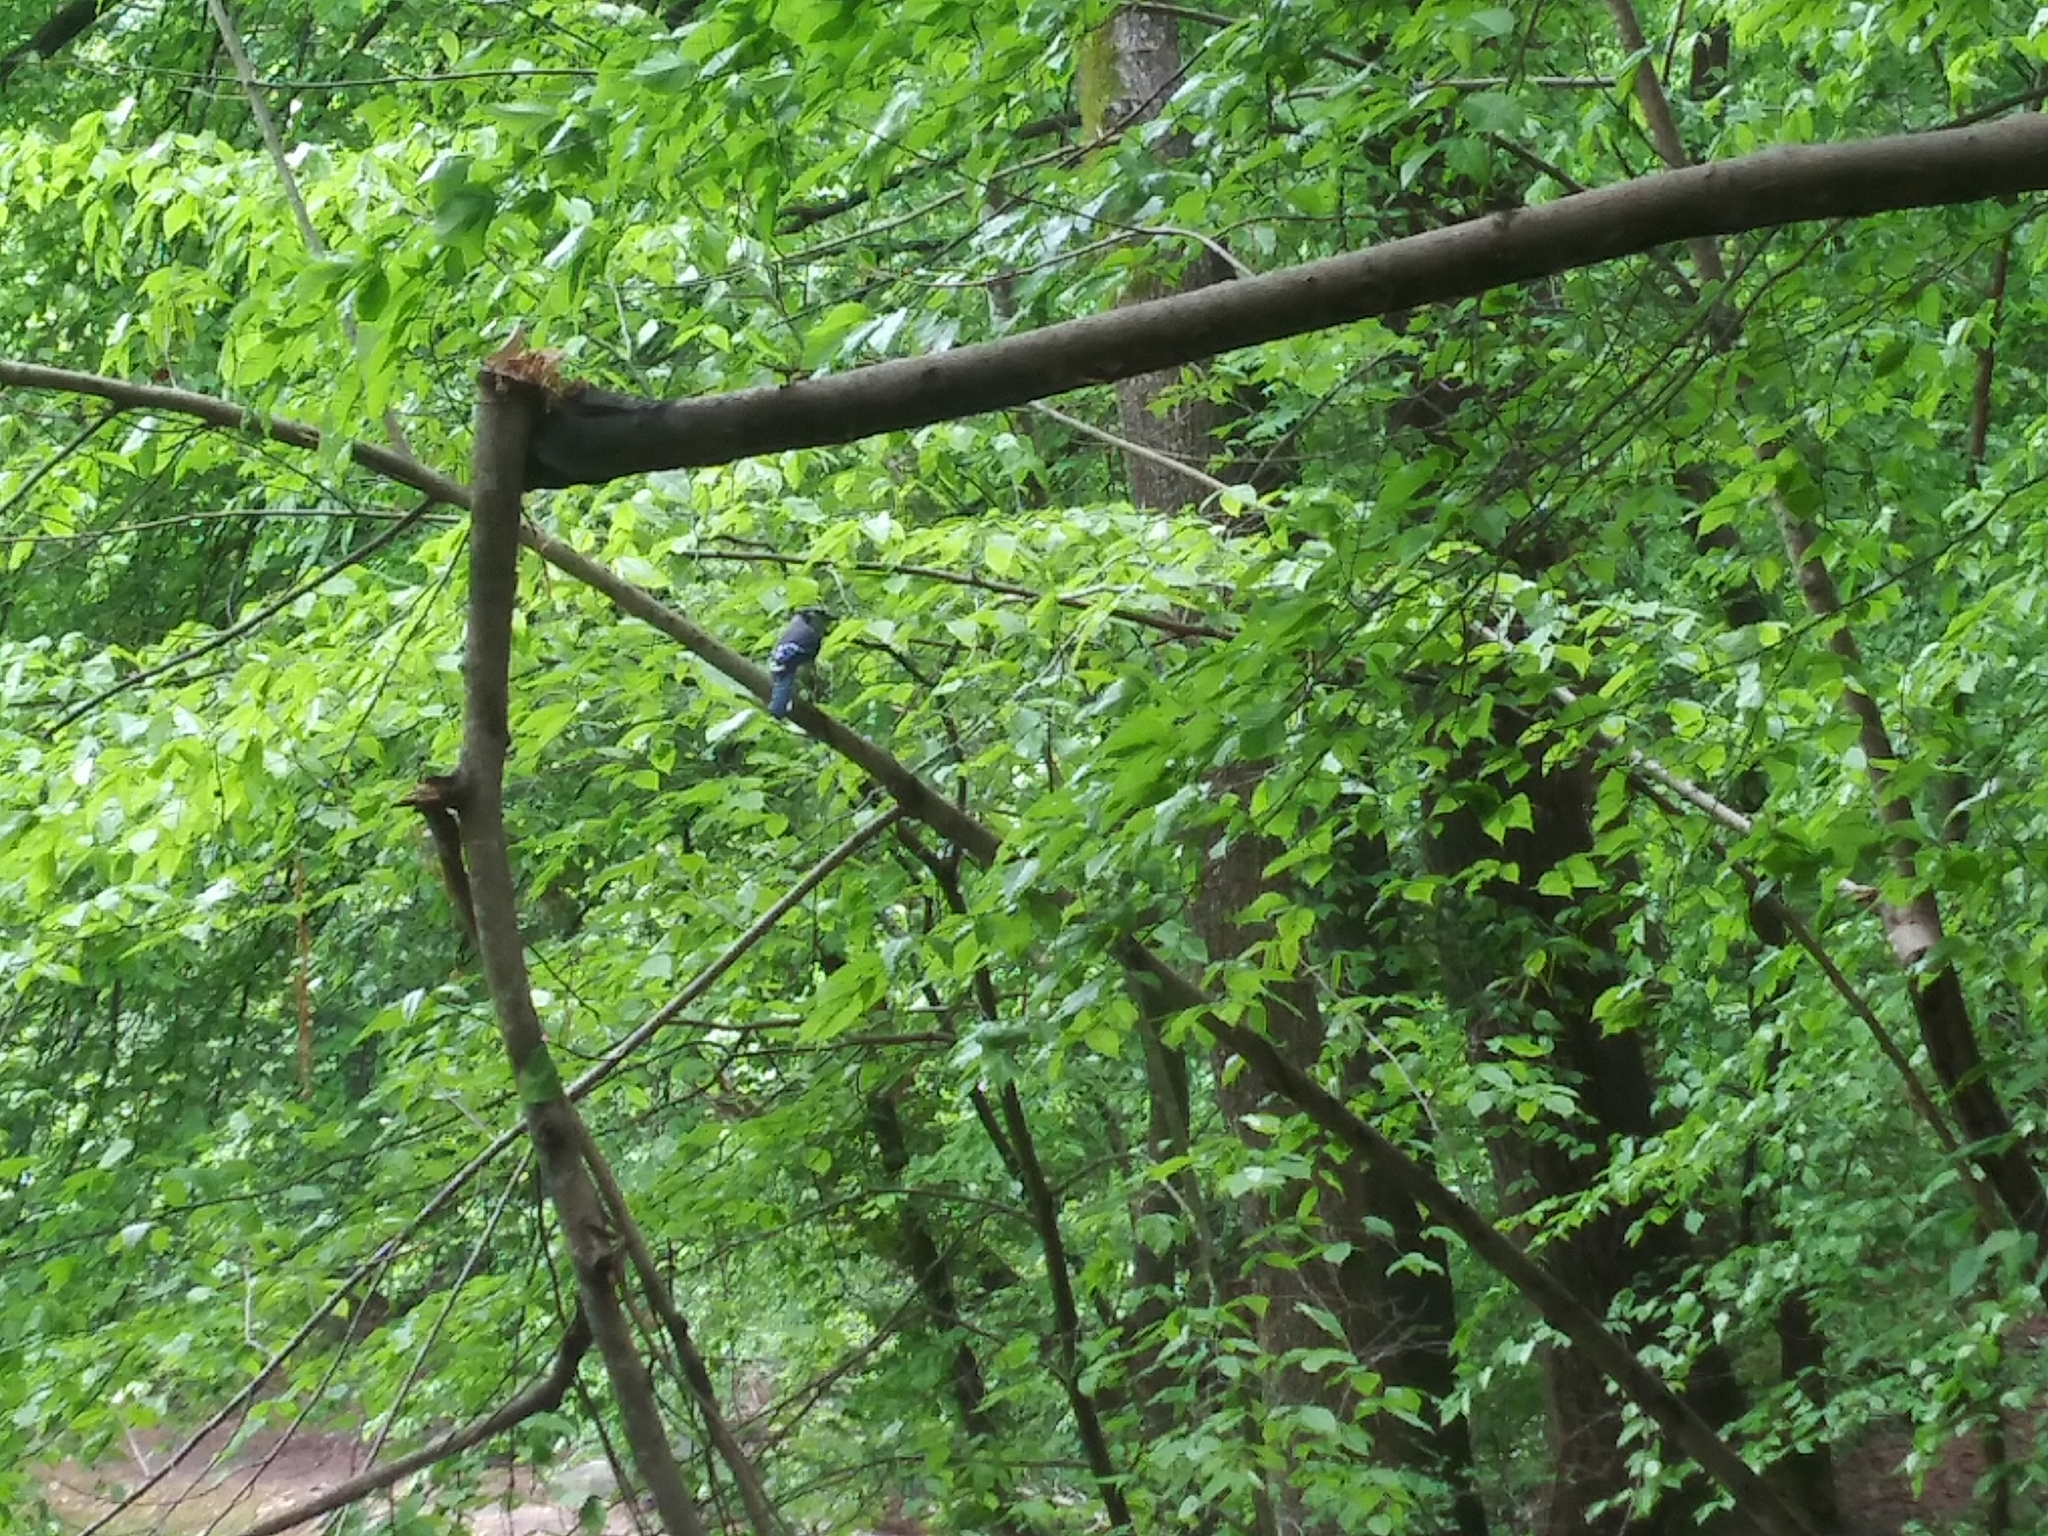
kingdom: Animalia
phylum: Chordata
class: Aves
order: Passeriformes
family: Corvidae
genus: Cyanocitta
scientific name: Cyanocitta cristata
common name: Blue jay
